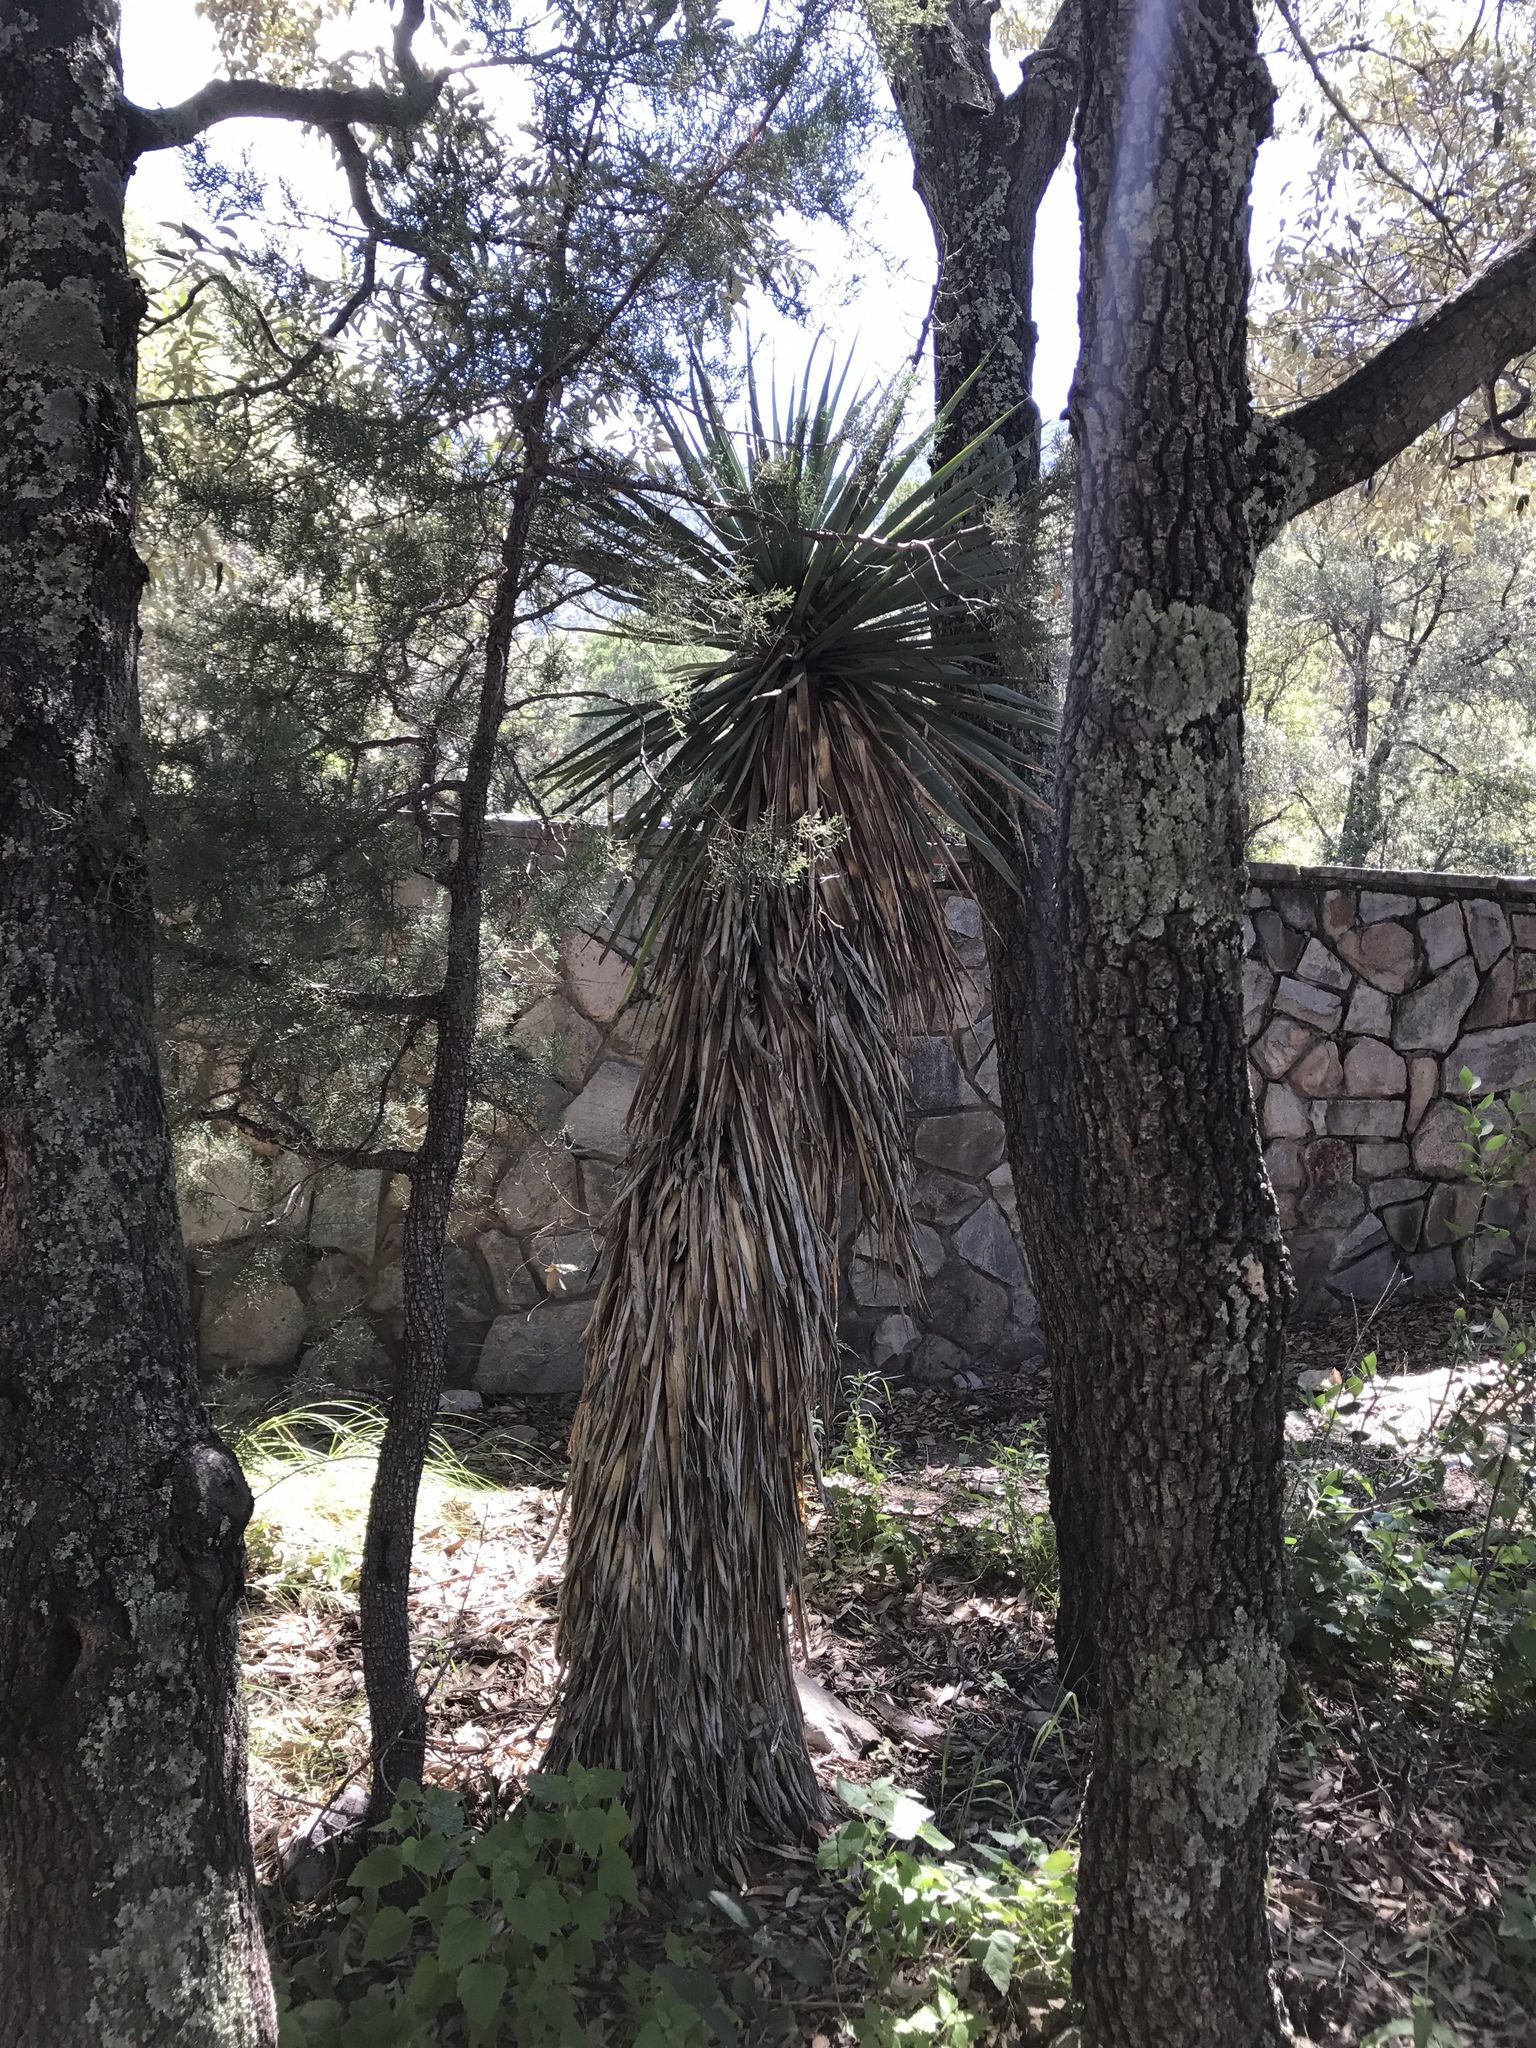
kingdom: Plantae
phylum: Tracheophyta
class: Liliopsida
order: Asparagales
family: Asparagaceae
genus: Yucca
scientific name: Yucca madrensis
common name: Hoary yucca
